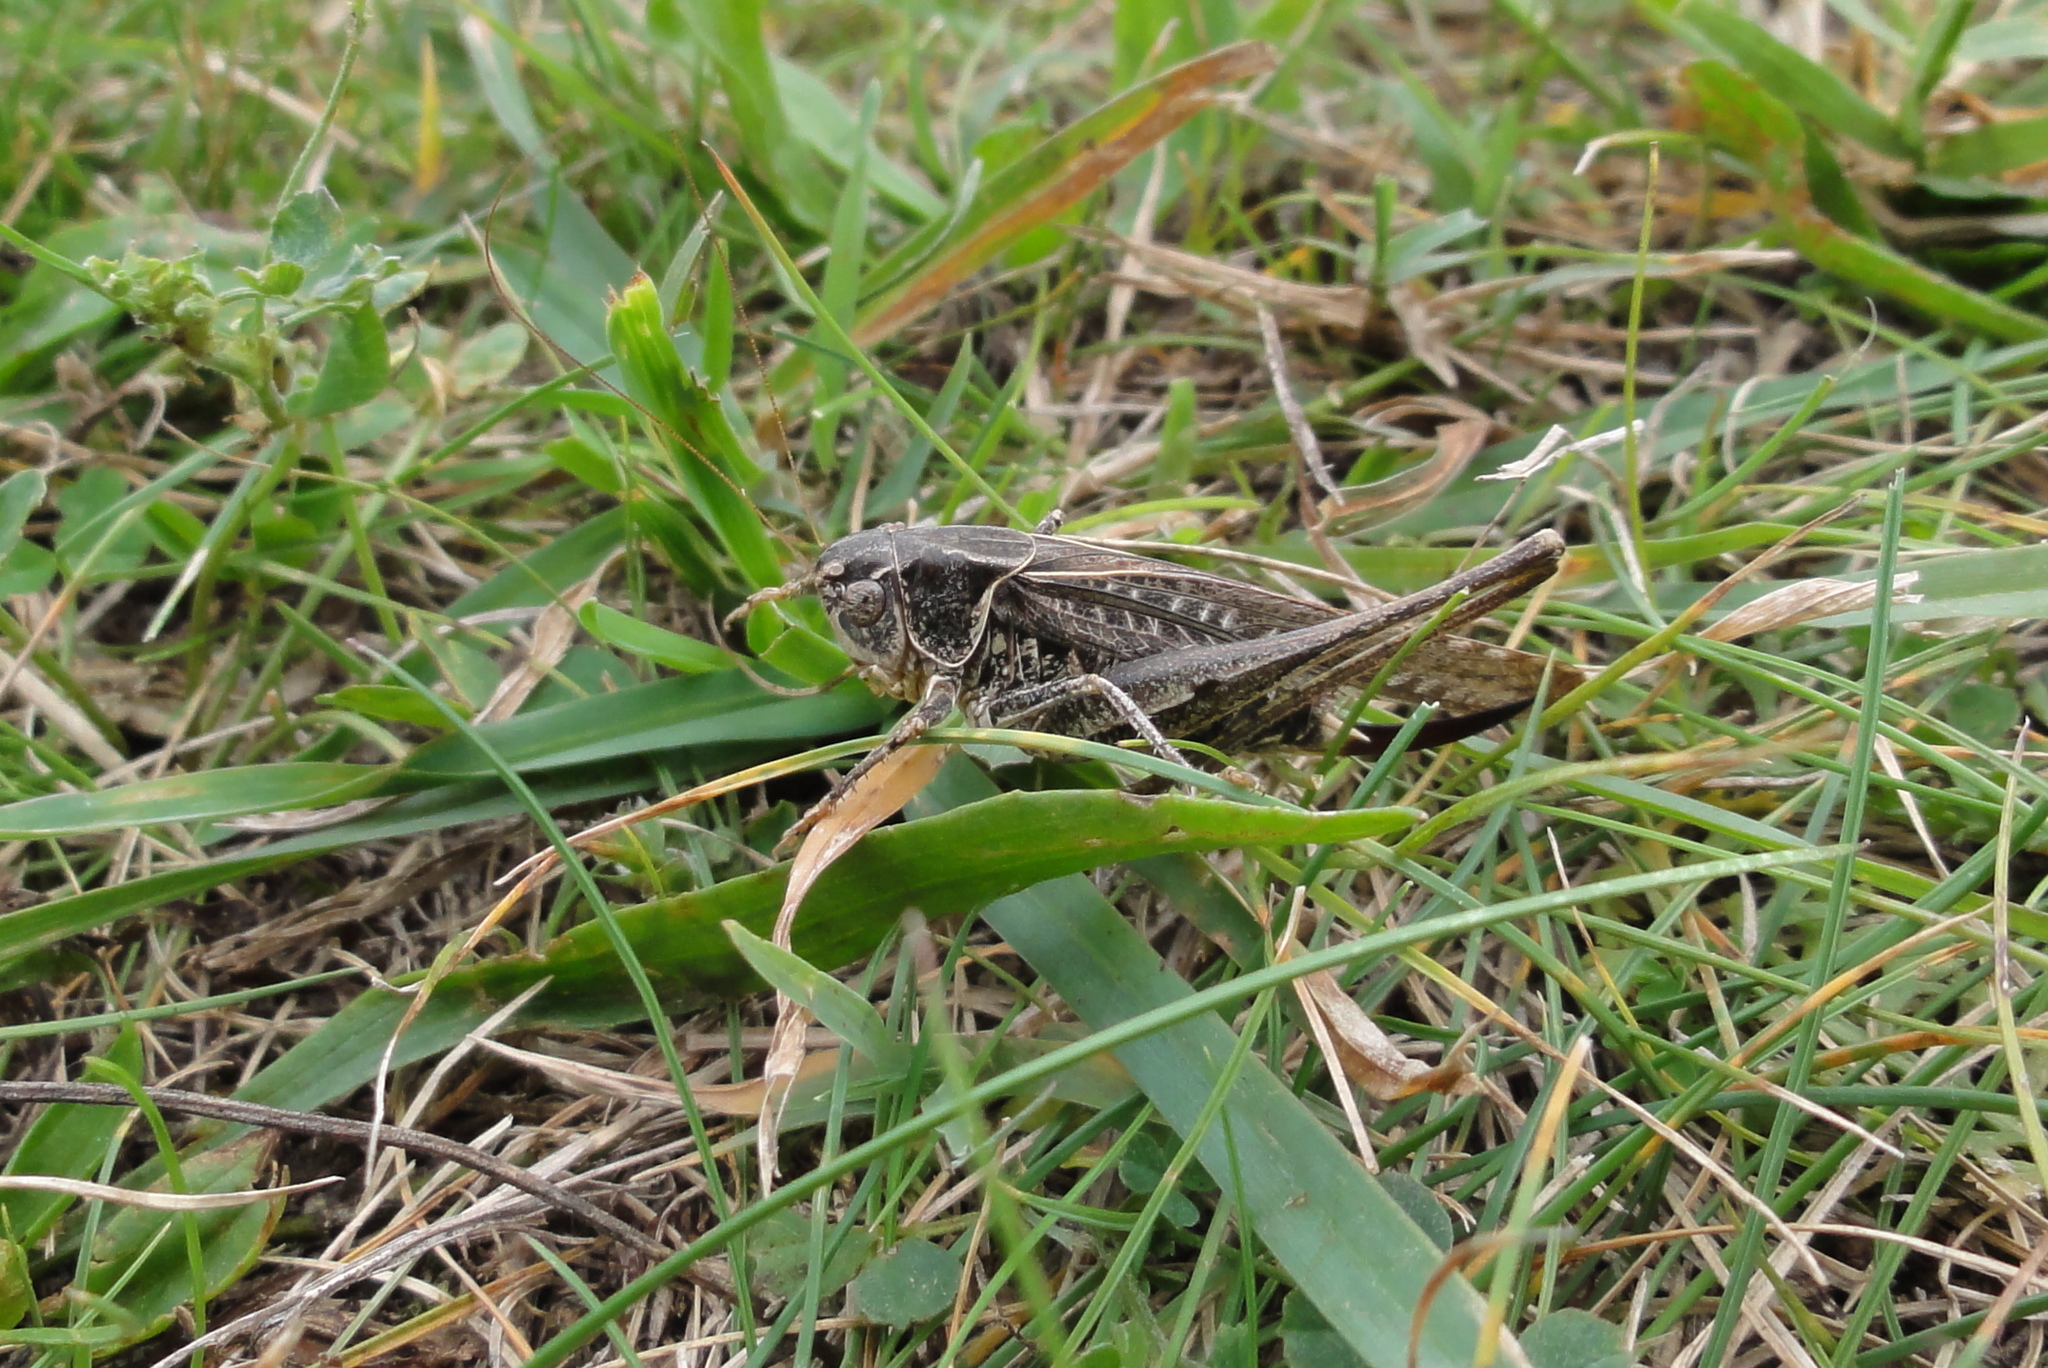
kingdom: Animalia
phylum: Arthropoda
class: Insecta
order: Orthoptera
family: Tettigoniidae
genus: Platycleis
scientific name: Platycleis affinis
